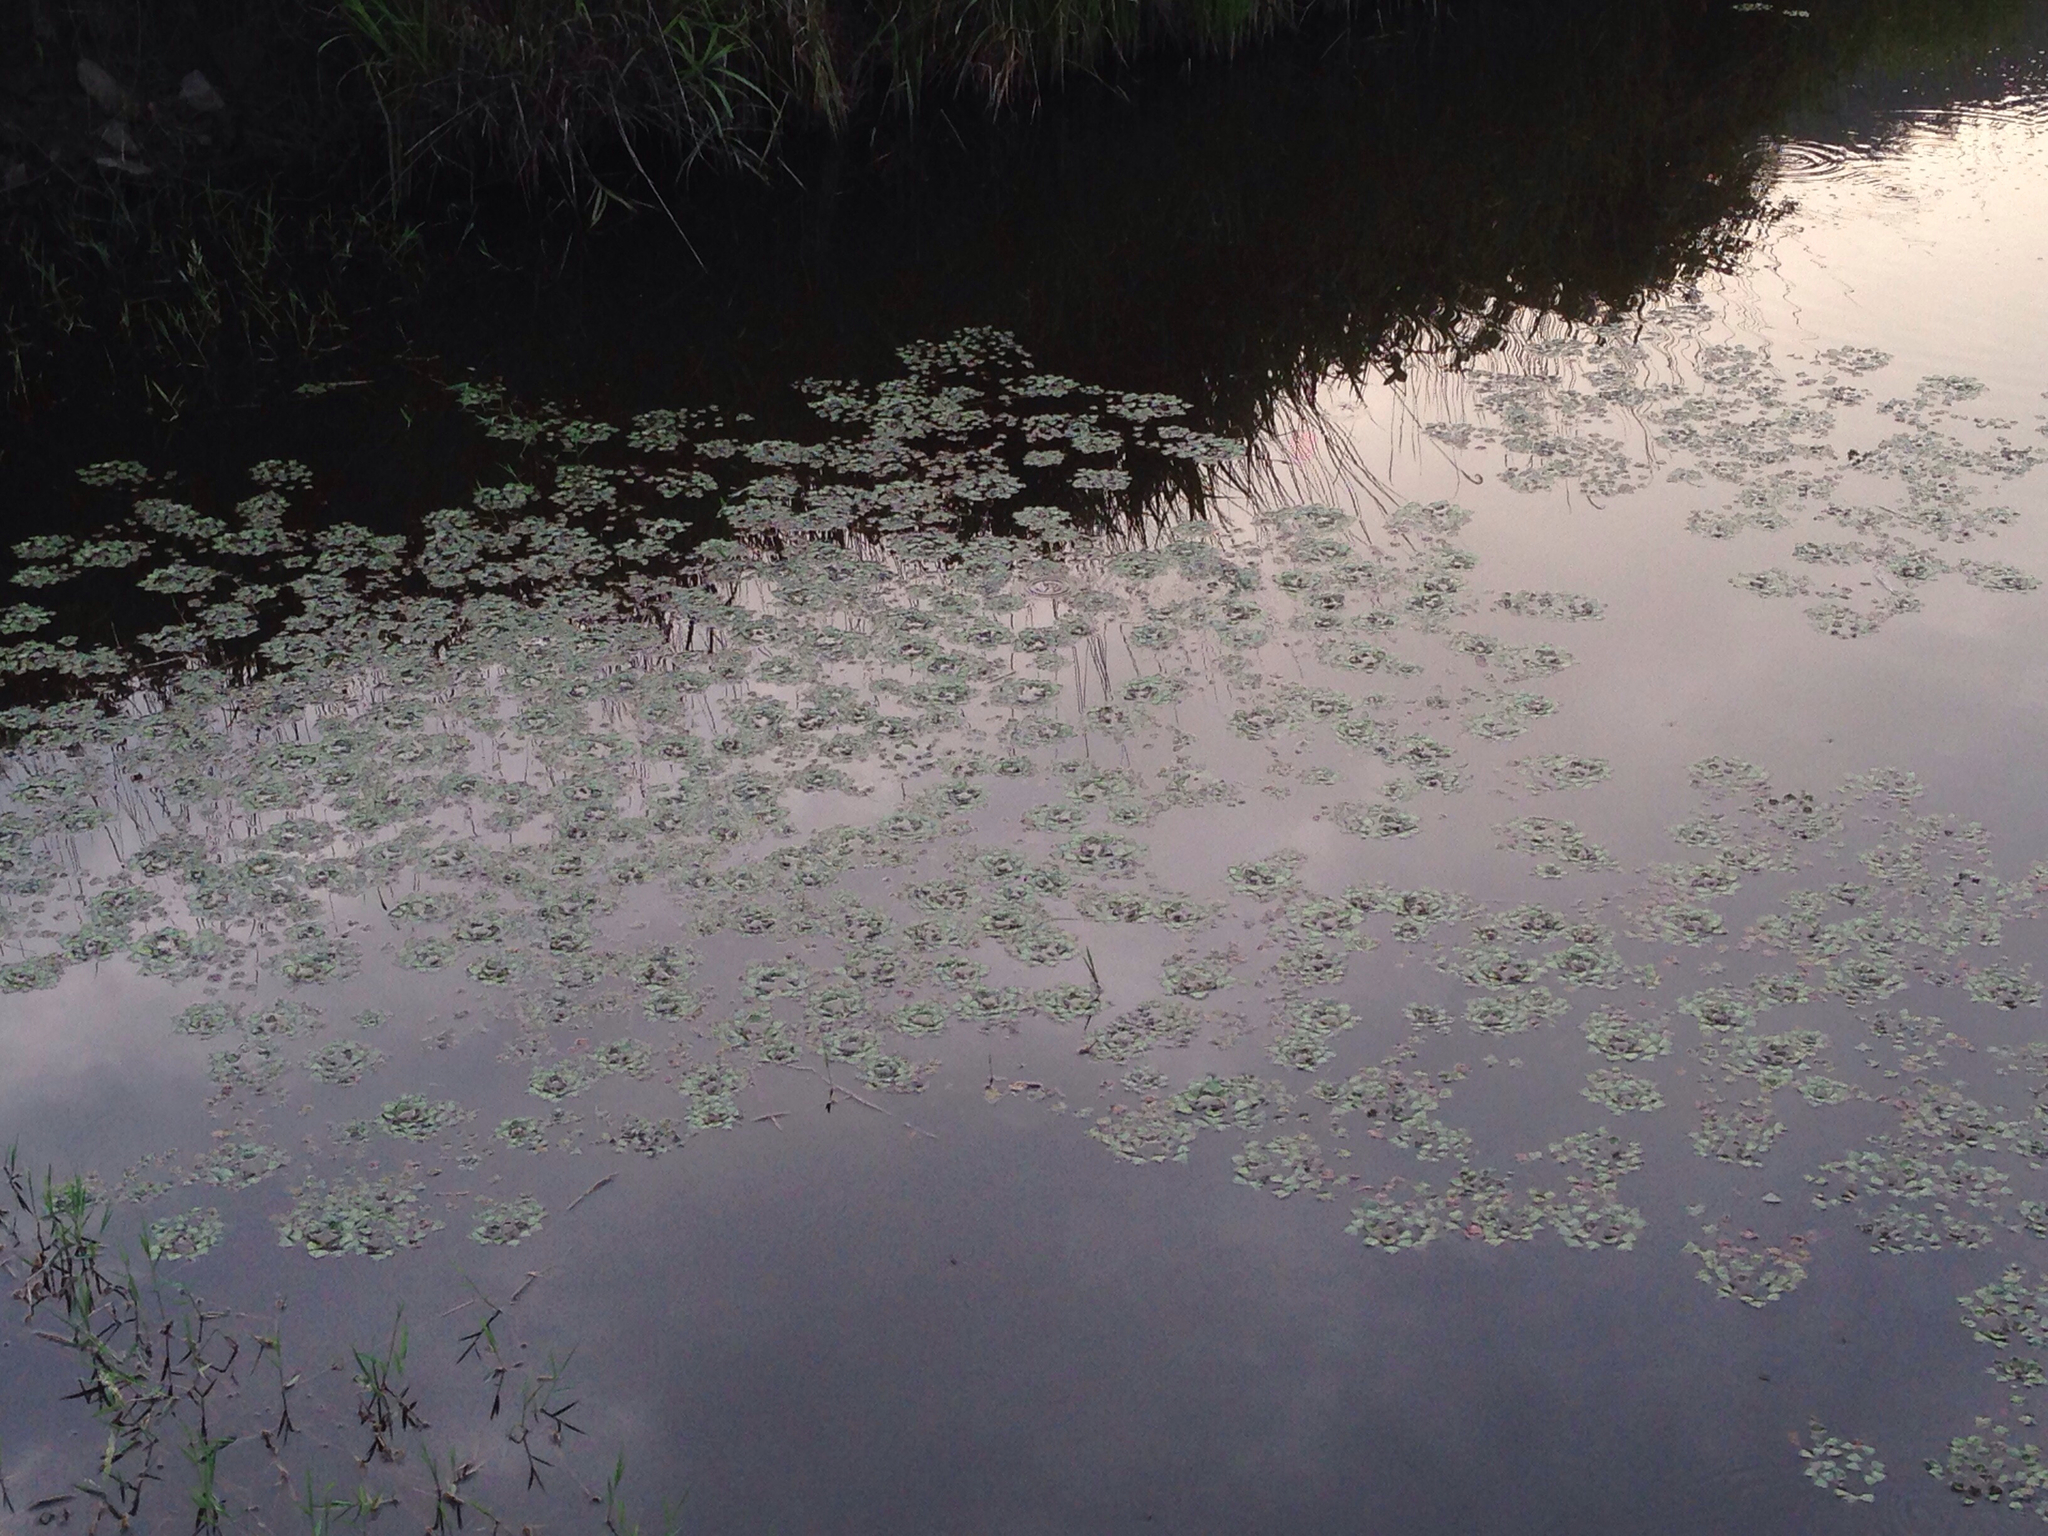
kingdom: Plantae
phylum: Tracheophyta
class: Magnoliopsida
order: Myrtales
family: Lythraceae
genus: Trapa
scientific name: Trapa natans
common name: Water chestnut
